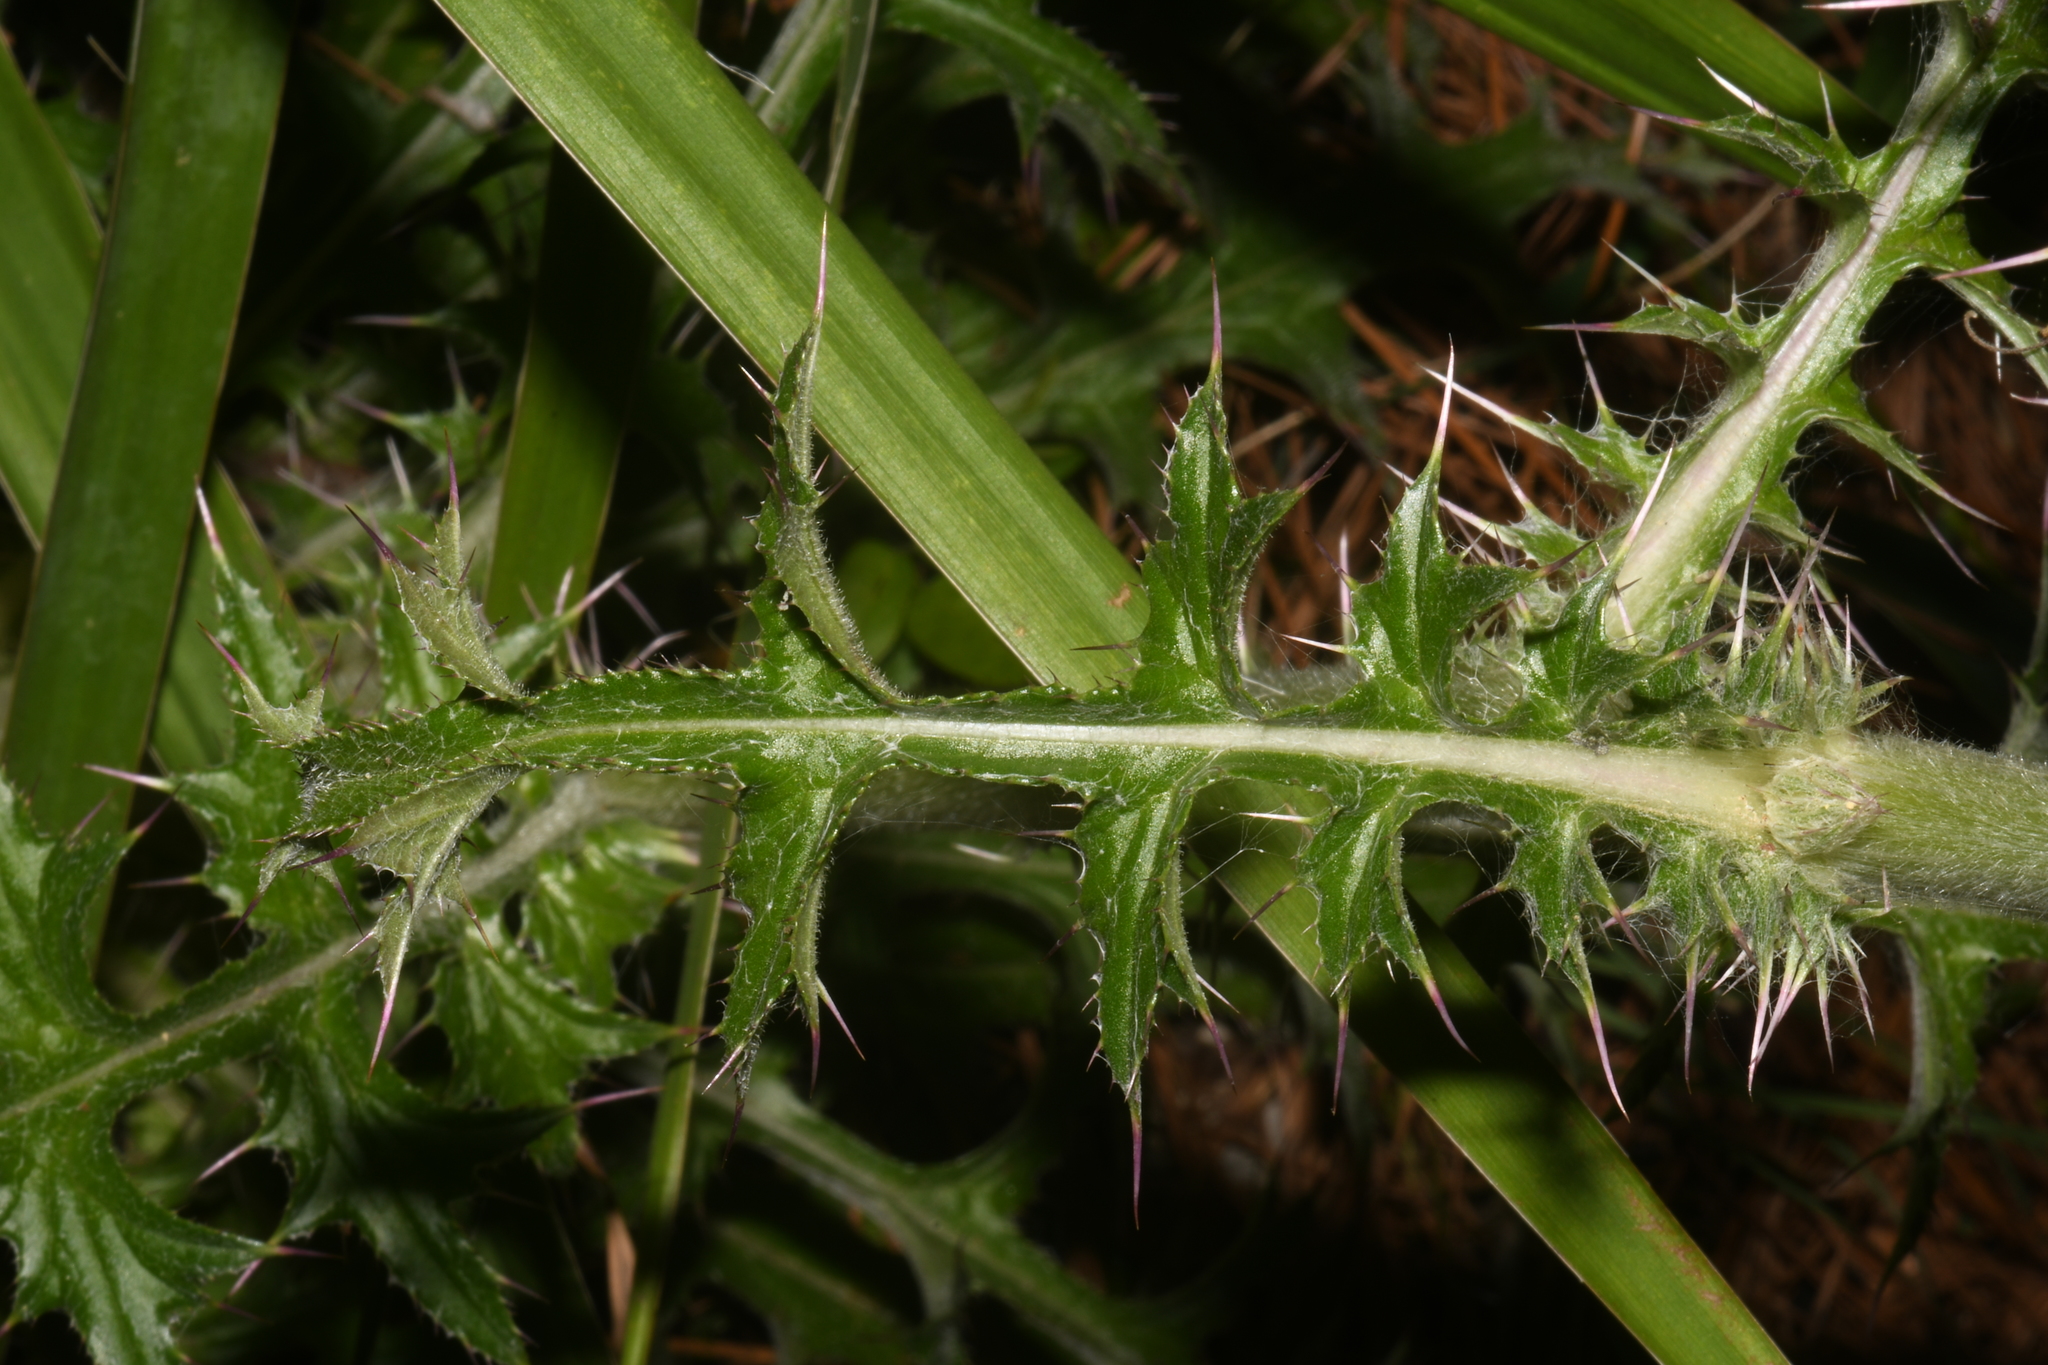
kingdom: Plantae
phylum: Tracheophyta
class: Magnoliopsida
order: Asterales
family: Asteraceae
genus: Cirsium
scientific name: Cirsium horridulum
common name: Bristly thistle
